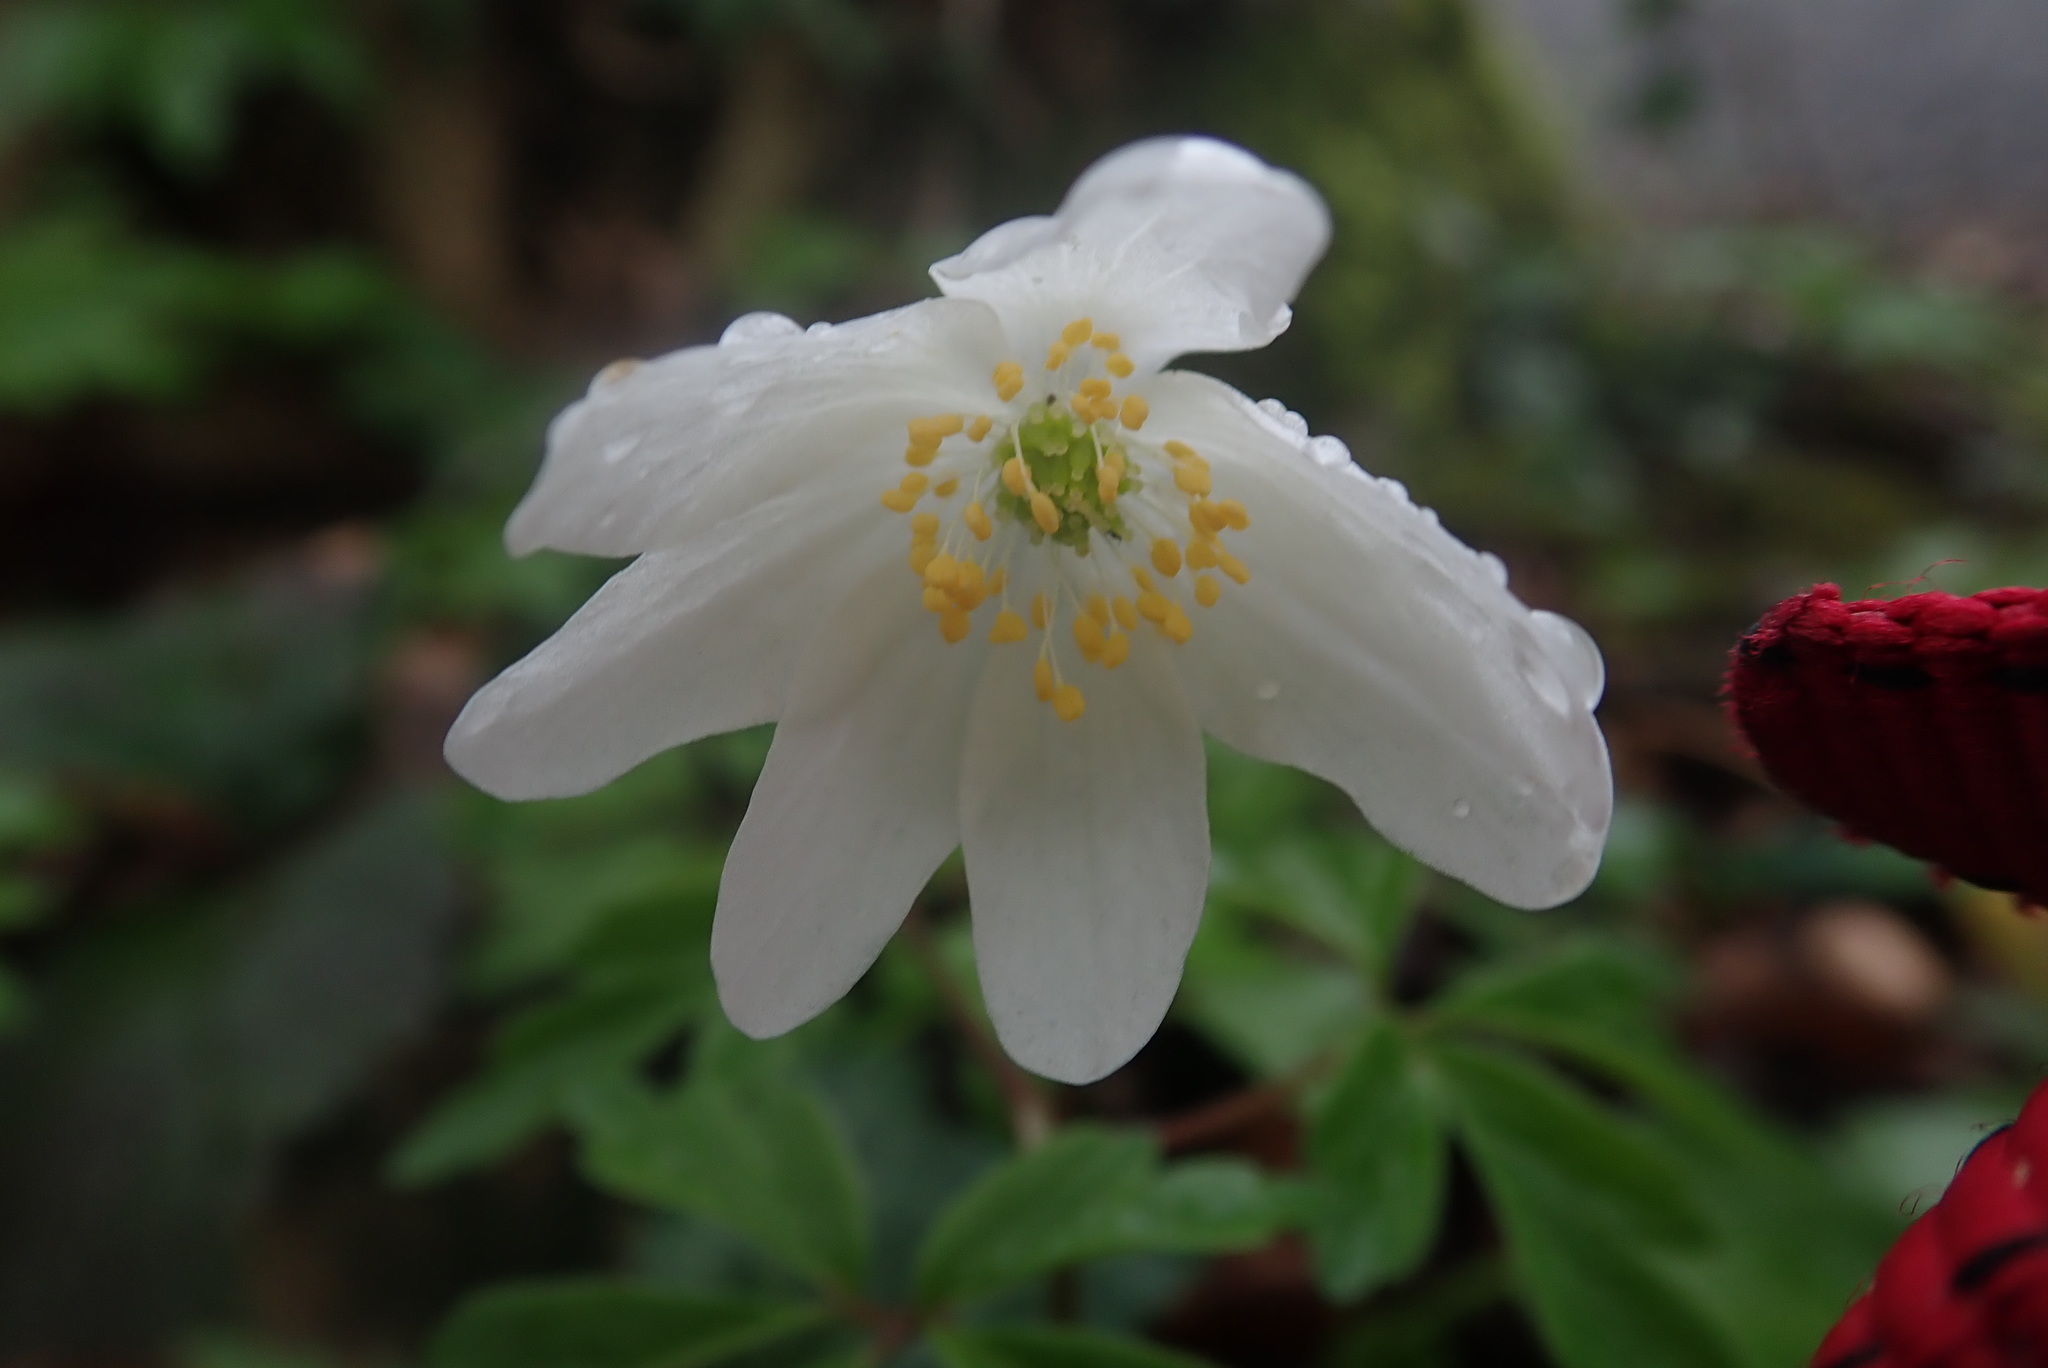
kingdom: Plantae
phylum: Tracheophyta
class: Magnoliopsida
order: Ranunculales
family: Ranunculaceae
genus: Anemone
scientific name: Anemone nemorosa
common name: Wood anemone
